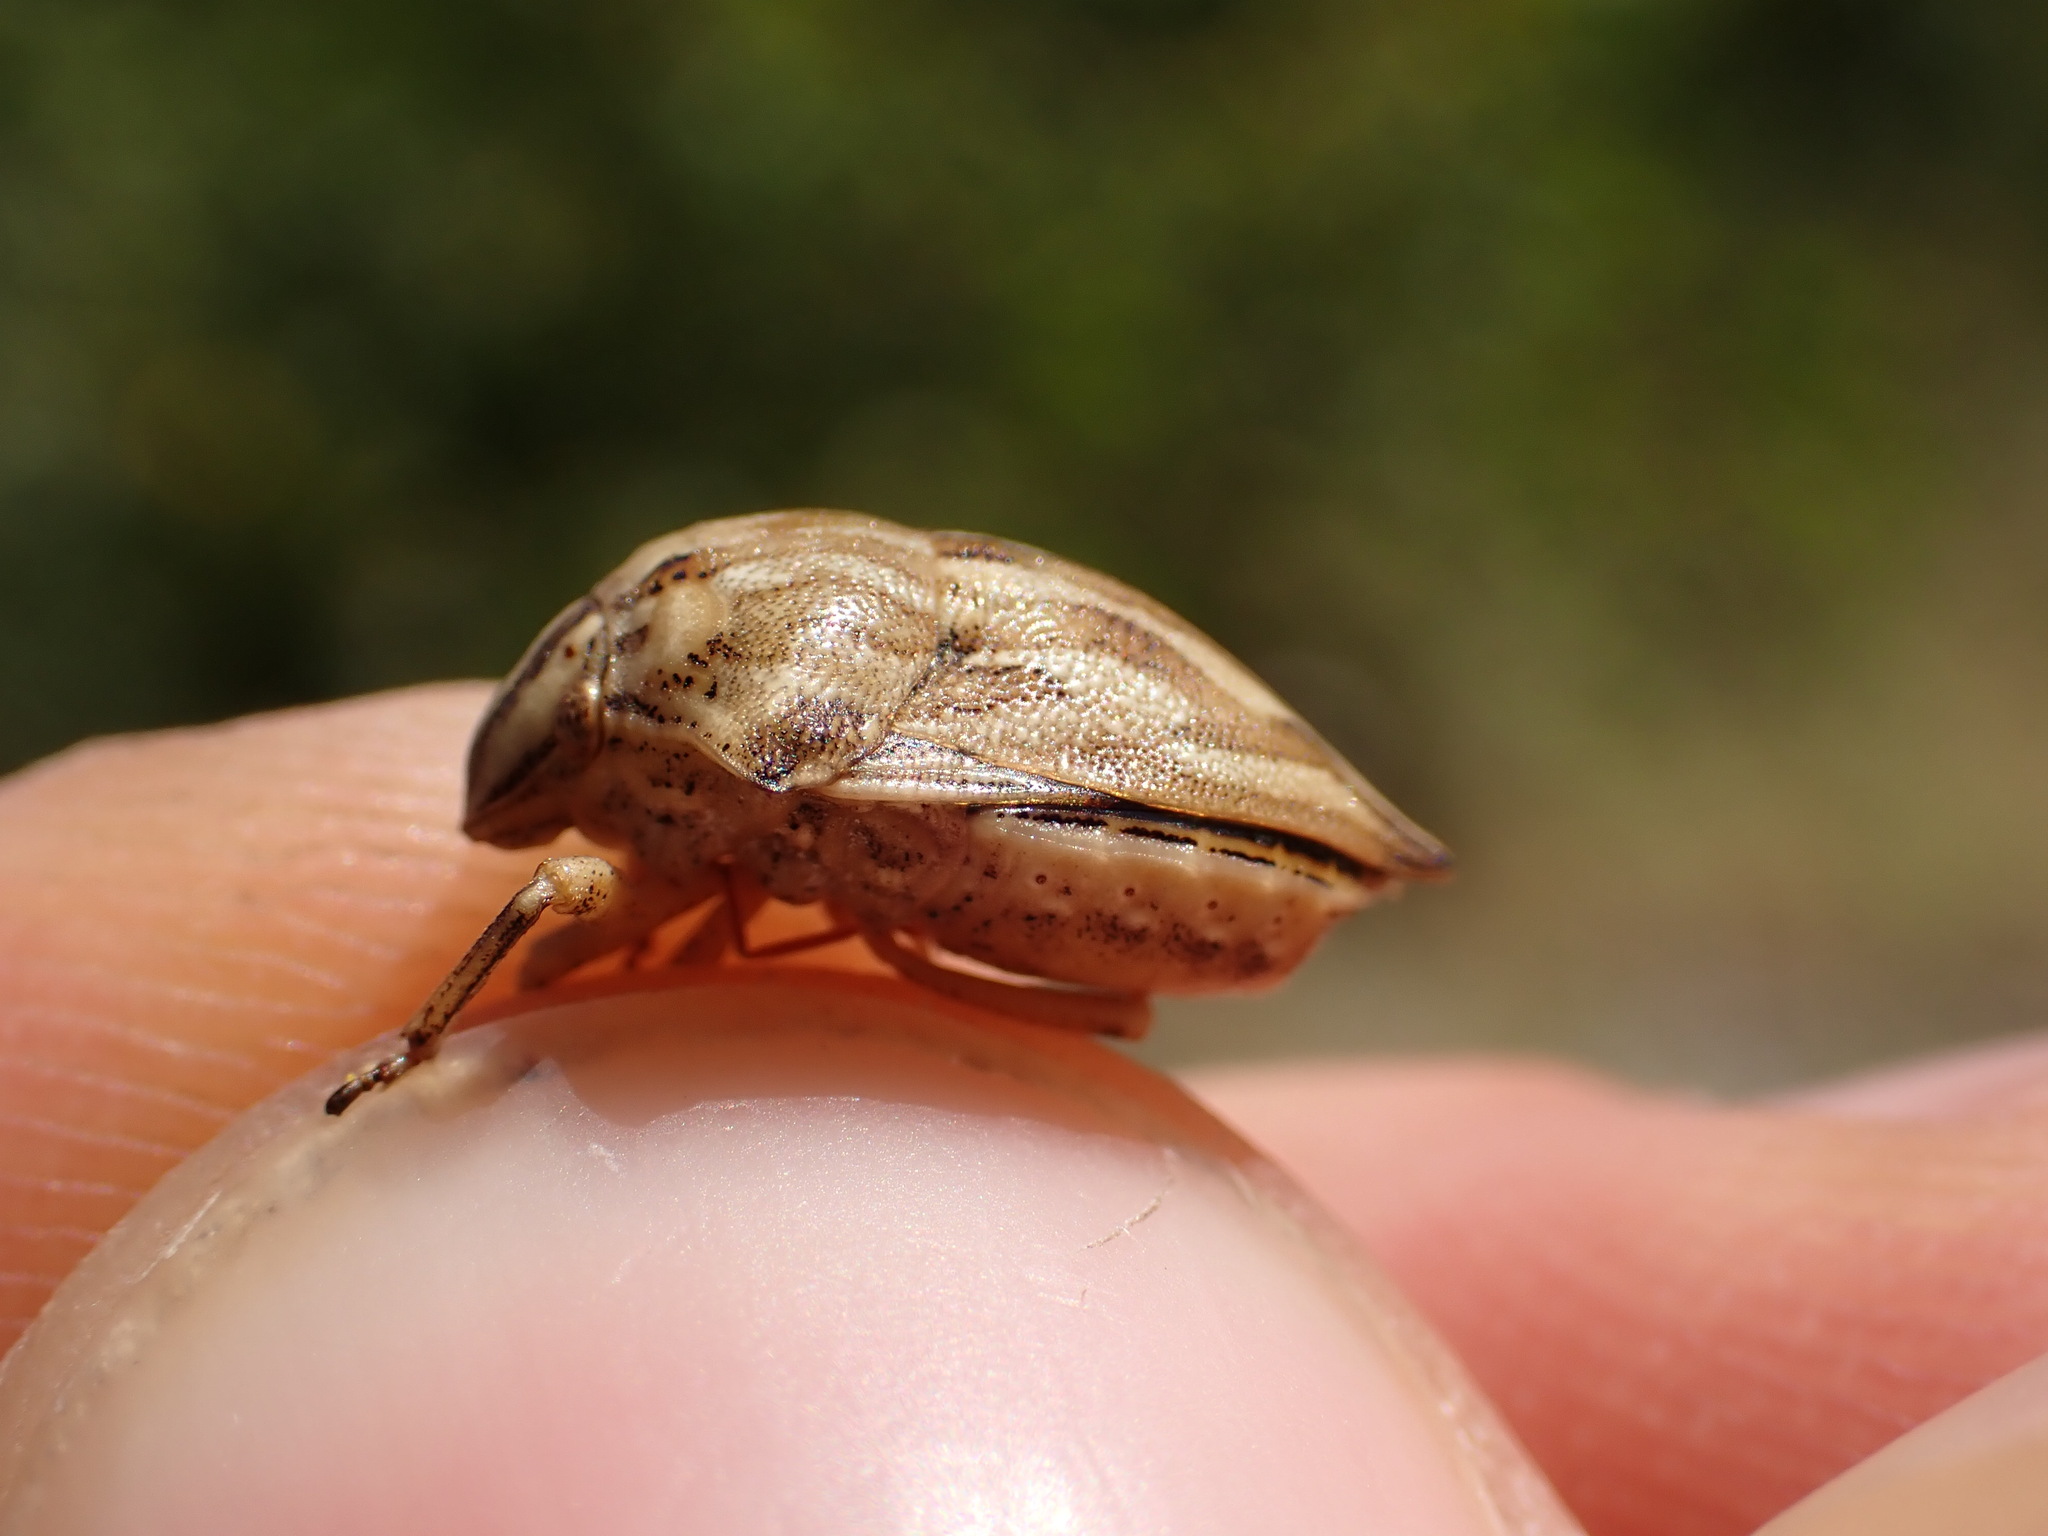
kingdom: Animalia
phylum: Arthropoda
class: Insecta
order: Hemiptera
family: Scutelleridae
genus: Odontotarsus
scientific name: Odontotarsus robustus
